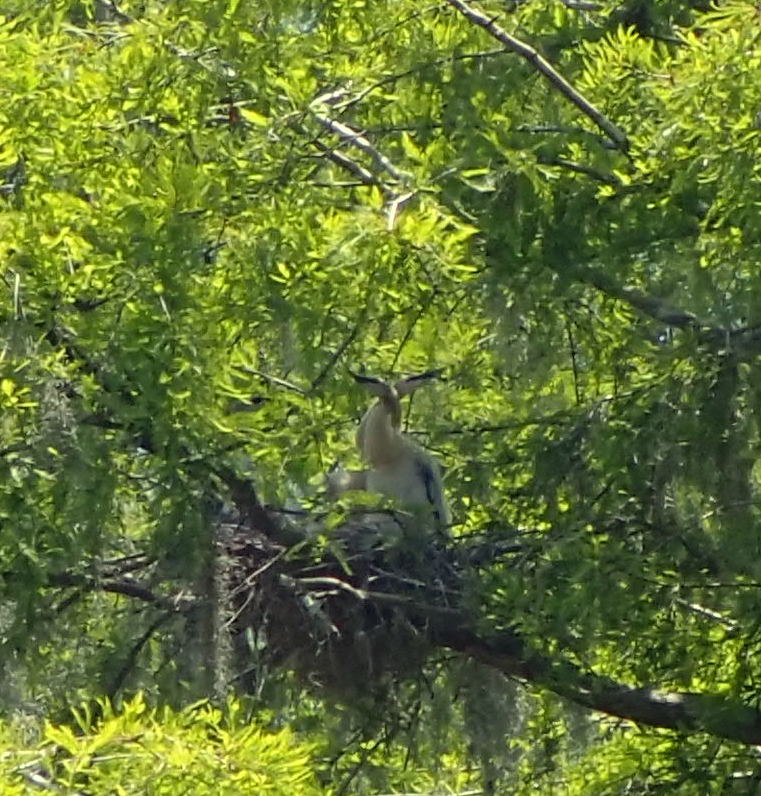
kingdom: Animalia
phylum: Chordata
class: Aves
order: Suliformes
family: Anhingidae
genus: Anhinga
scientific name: Anhinga anhinga
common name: Anhinga
